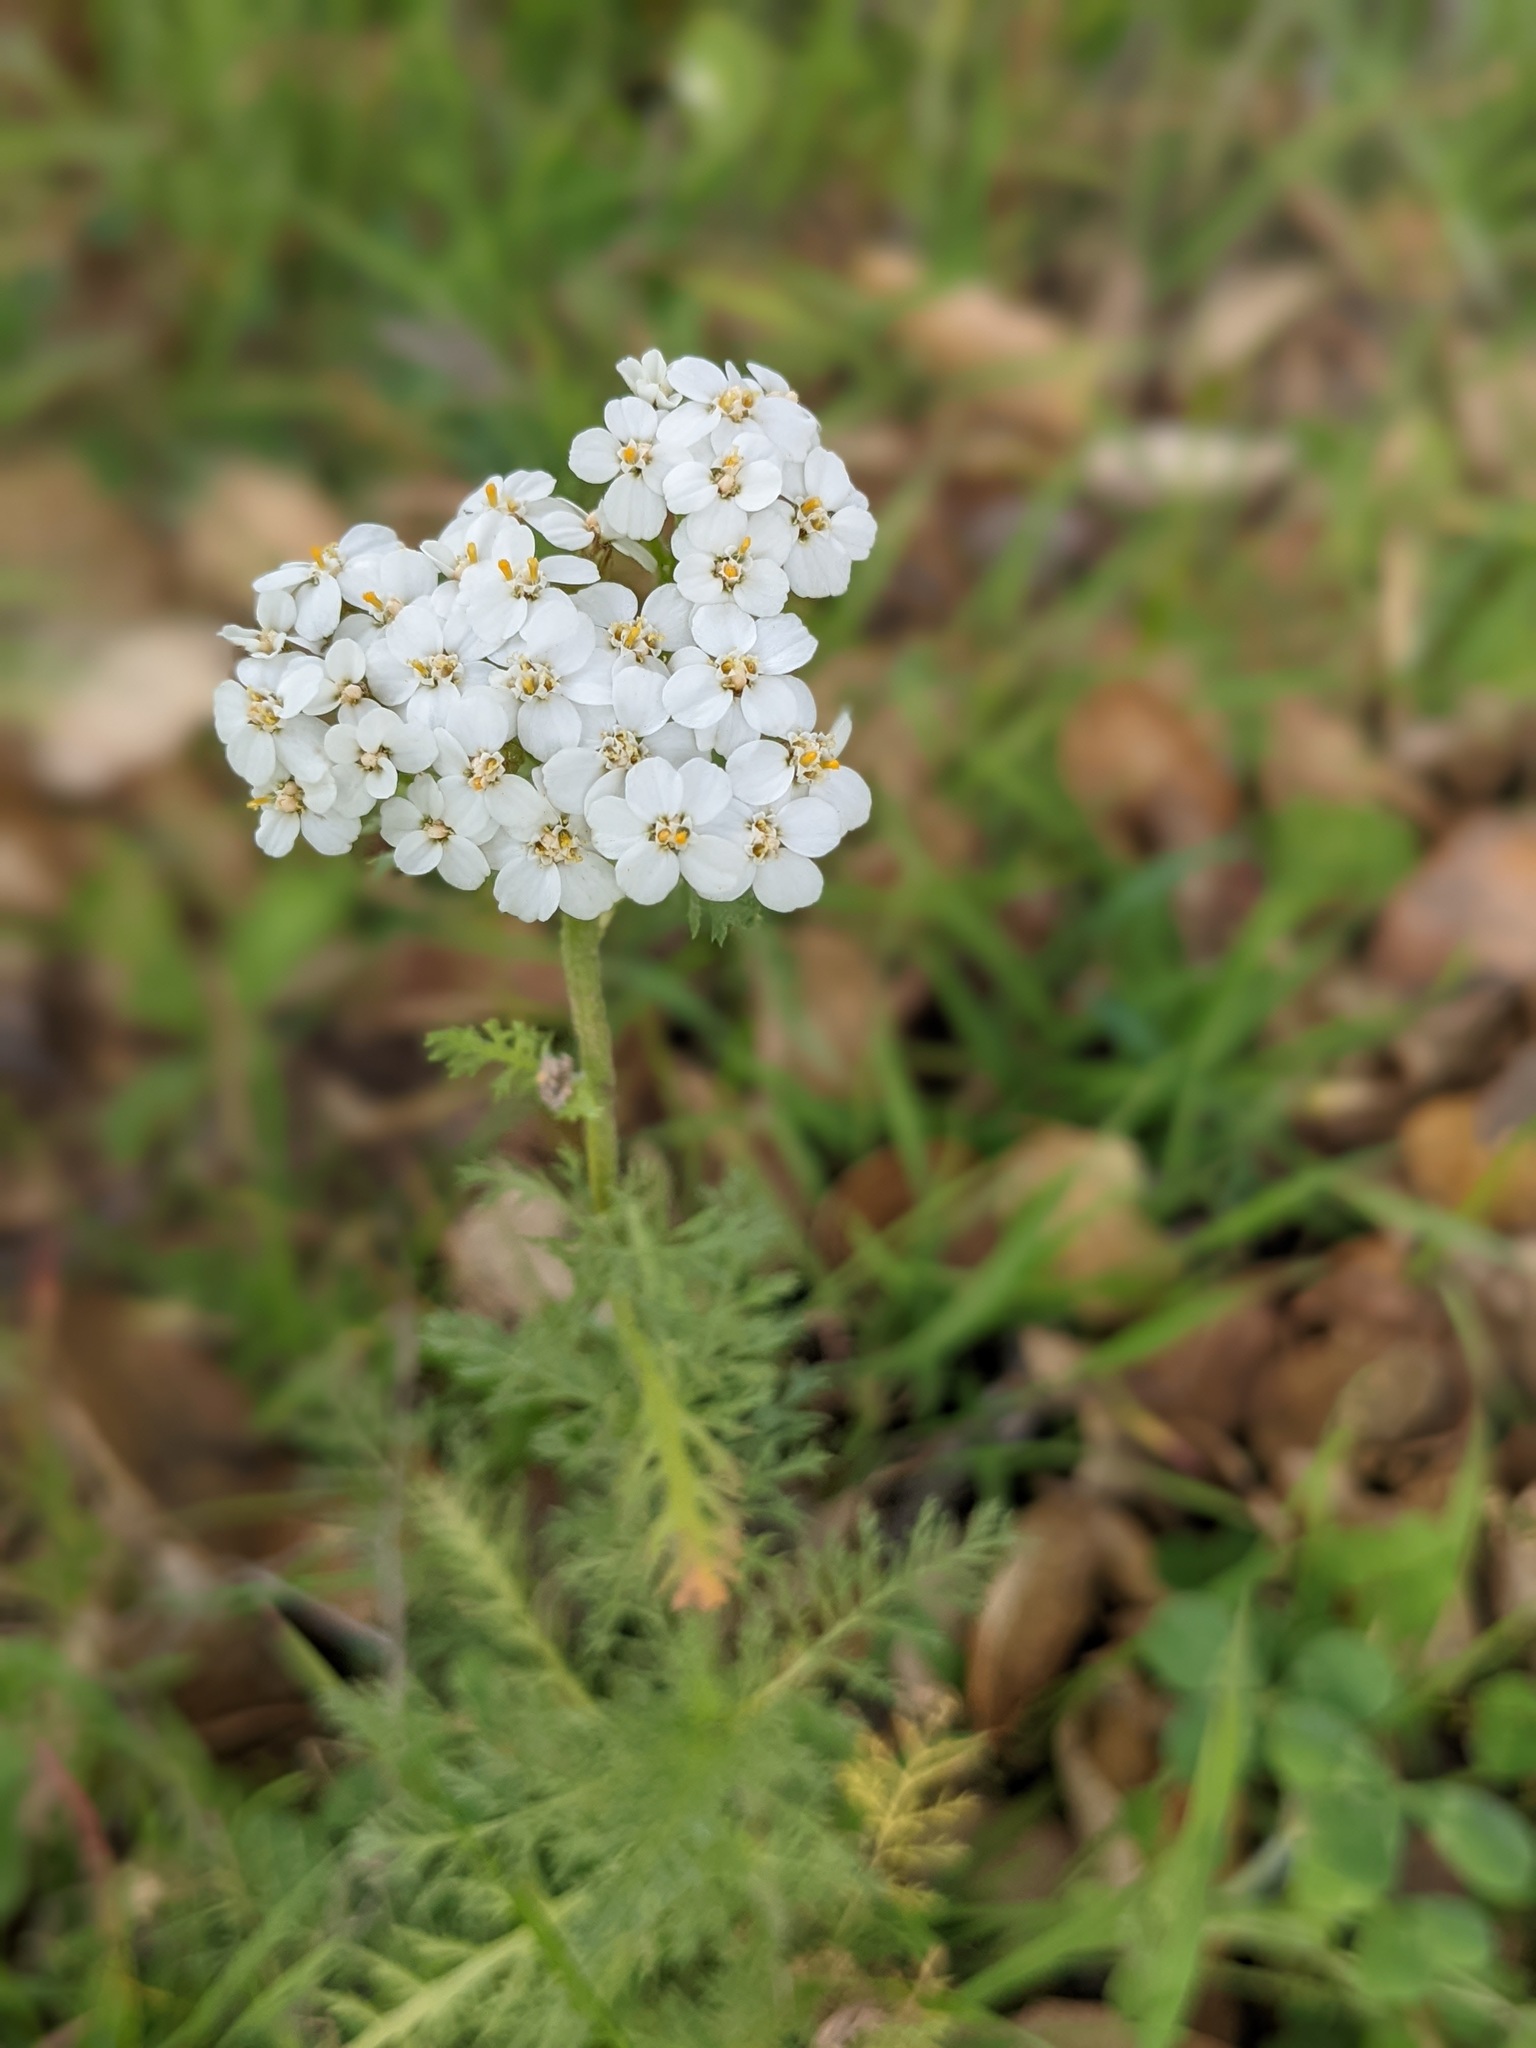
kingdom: Plantae
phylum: Tracheophyta
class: Magnoliopsida
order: Asterales
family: Asteraceae
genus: Achillea
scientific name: Achillea millefolium
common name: Yarrow
